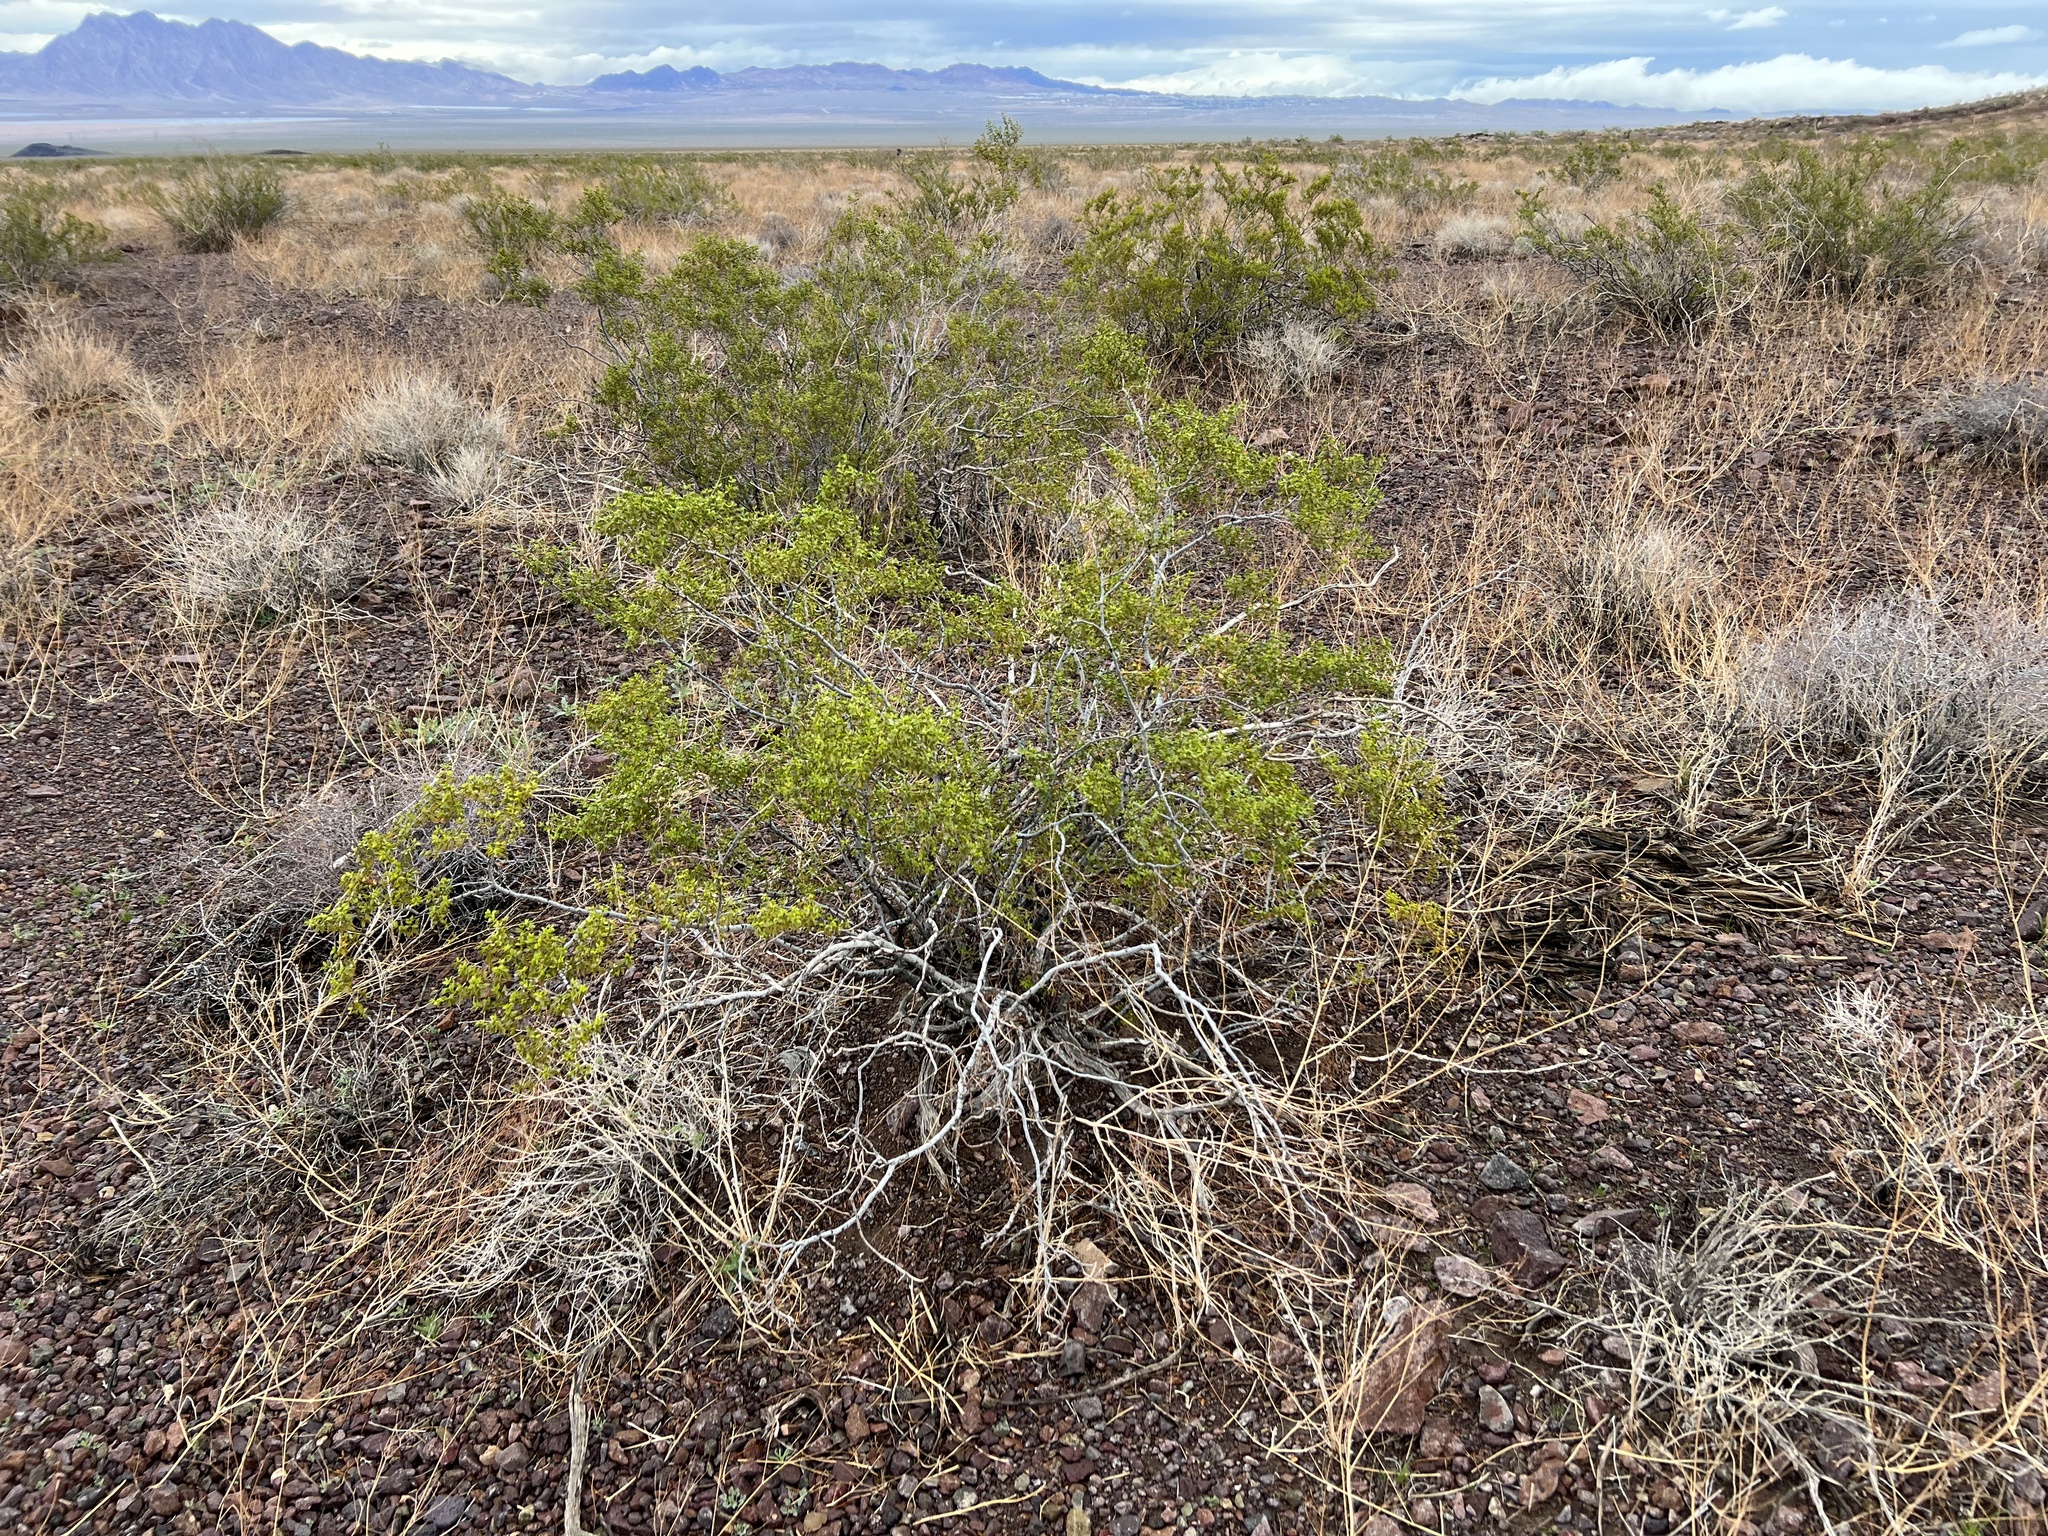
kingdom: Plantae
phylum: Tracheophyta
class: Magnoliopsida
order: Zygophyllales
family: Zygophyllaceae
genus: Larrea
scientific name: Larrea tridentata
